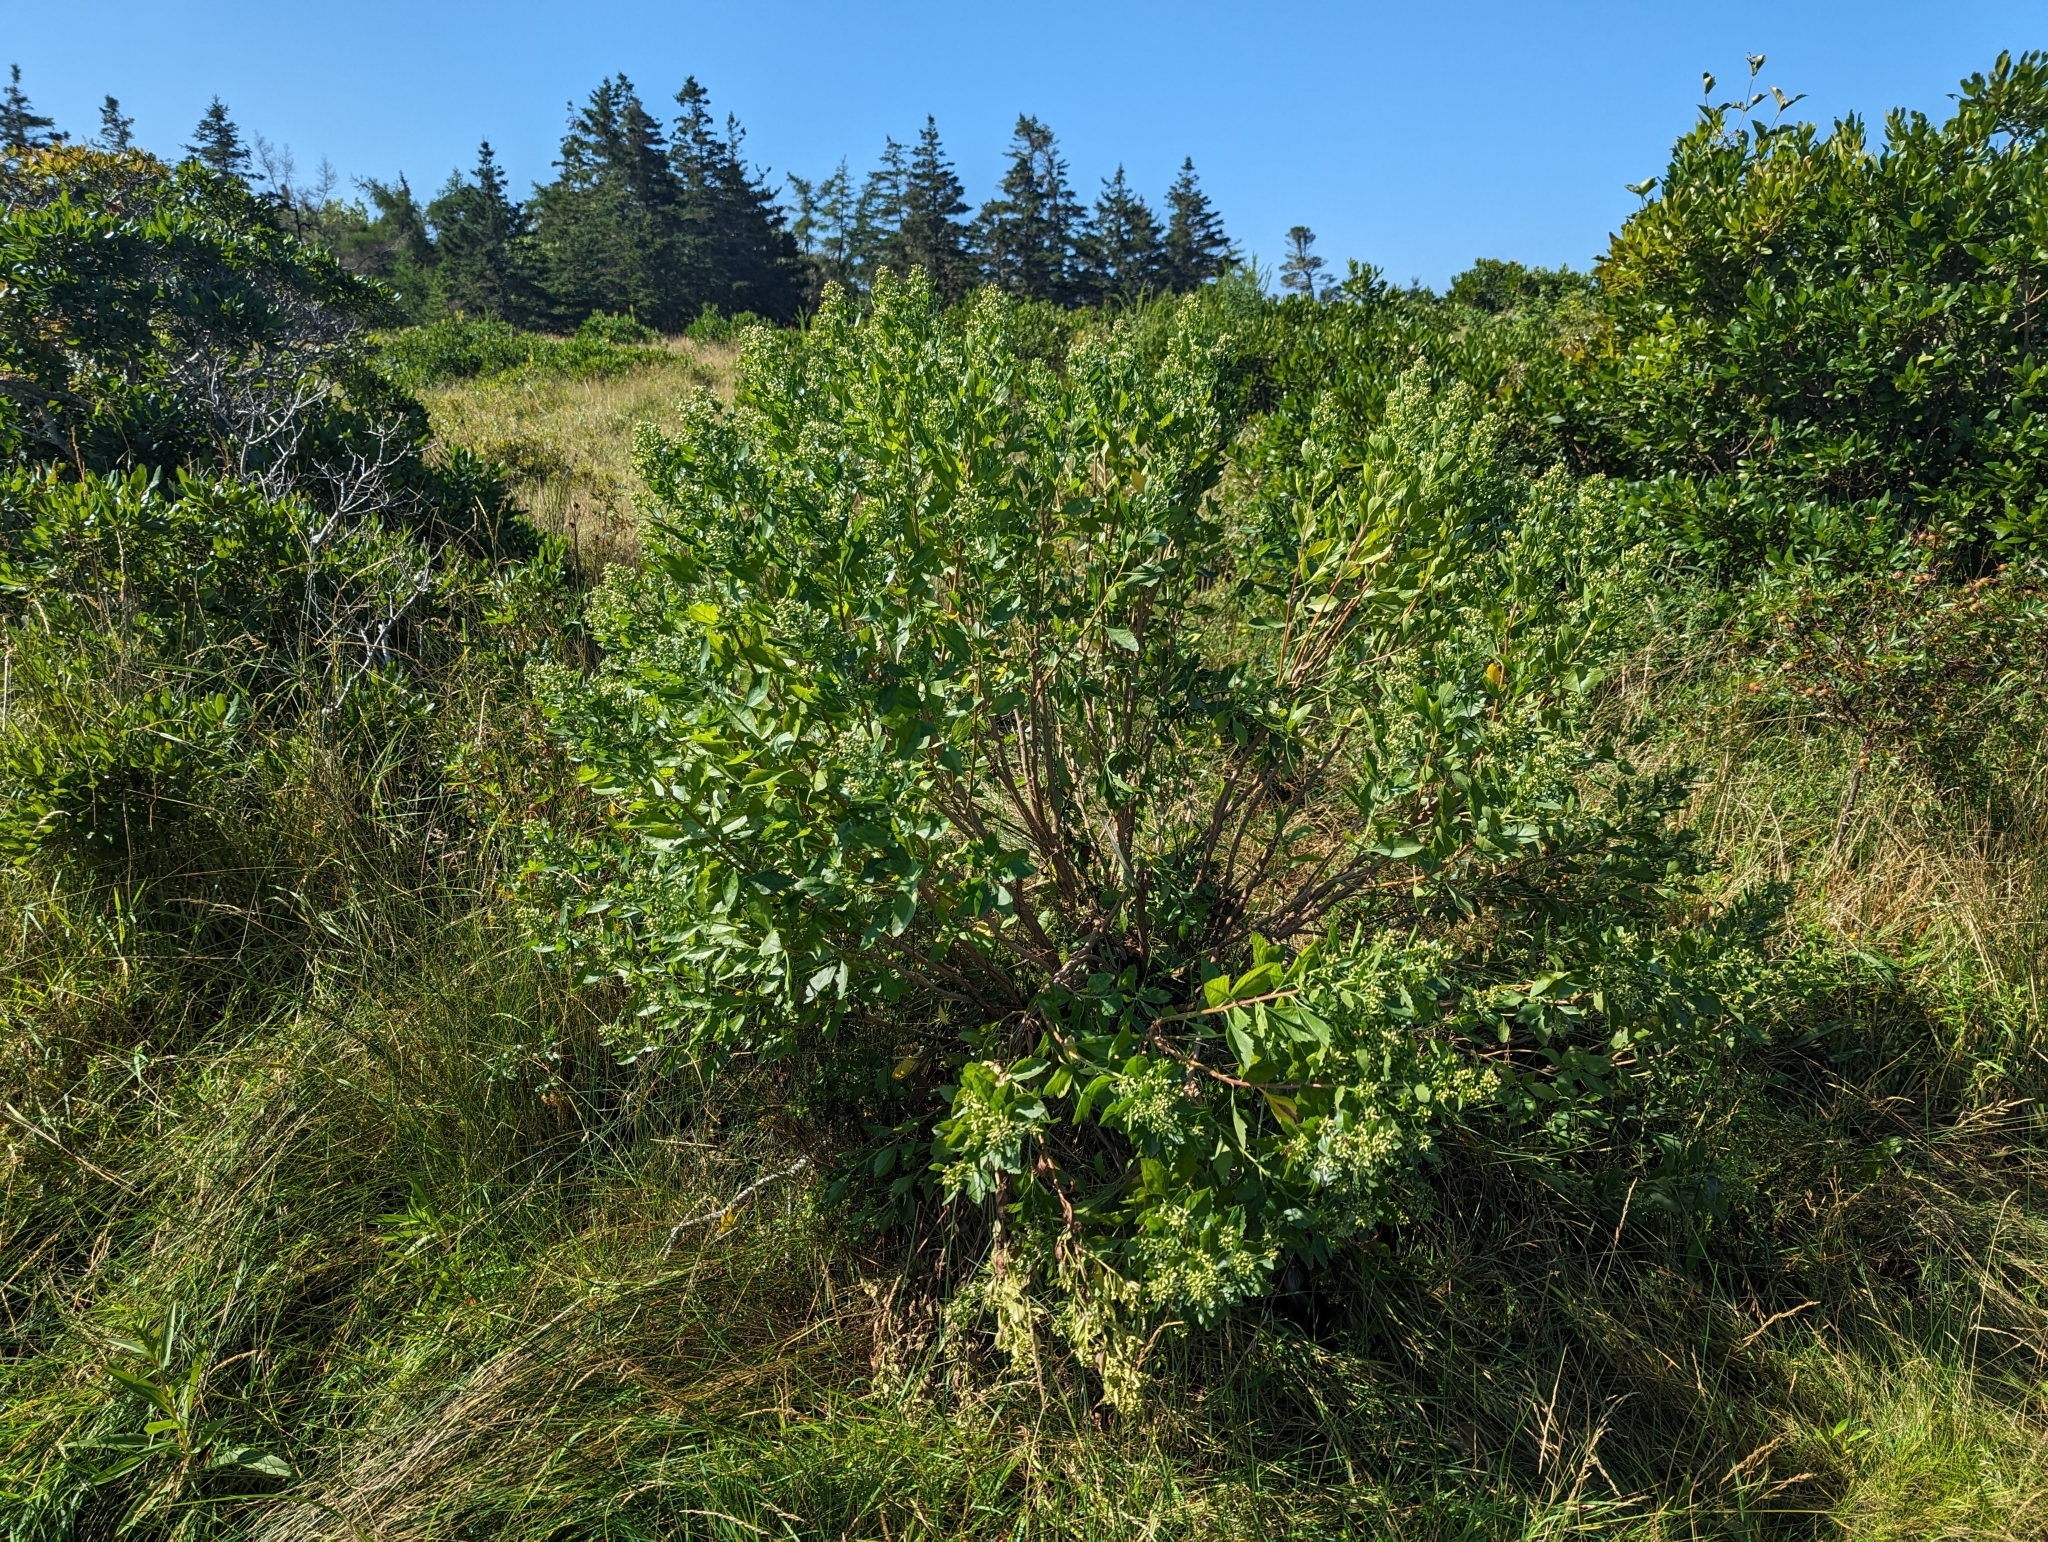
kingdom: Plantae
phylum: Tracheophyta
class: Magnoliopsida
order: Asterales
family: Asteraceae
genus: Baccharis
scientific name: Baccharis halimifolia
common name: Eastern baccharis
